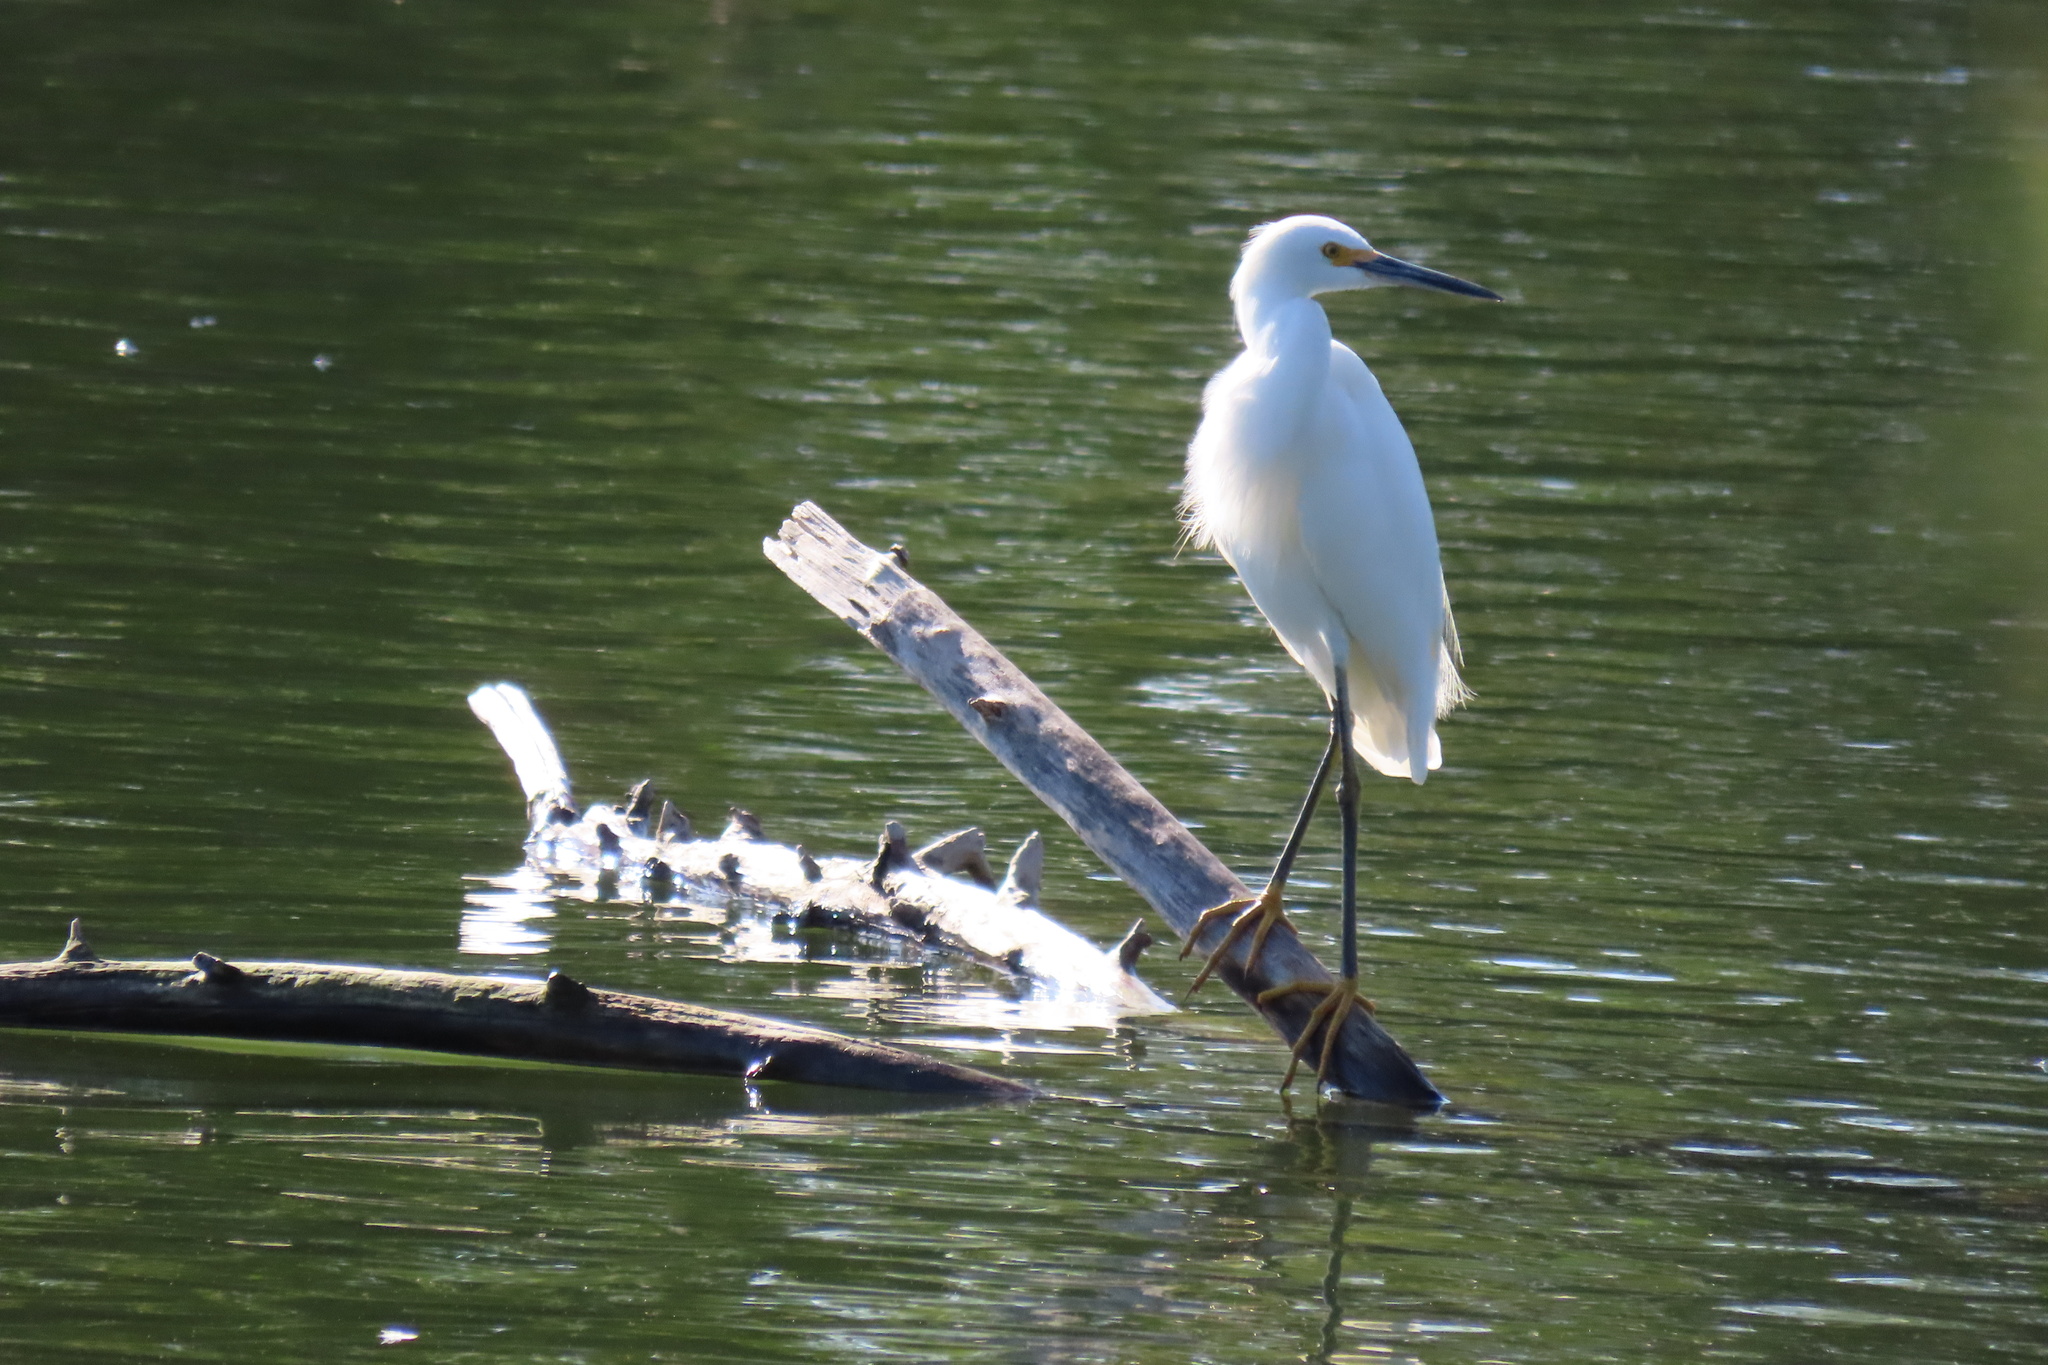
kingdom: Animalia
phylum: Chordata
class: Aves
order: Pelecaniformes
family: Ardeidae
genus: Egretta
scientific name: Egretta thula
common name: Snowy egret
